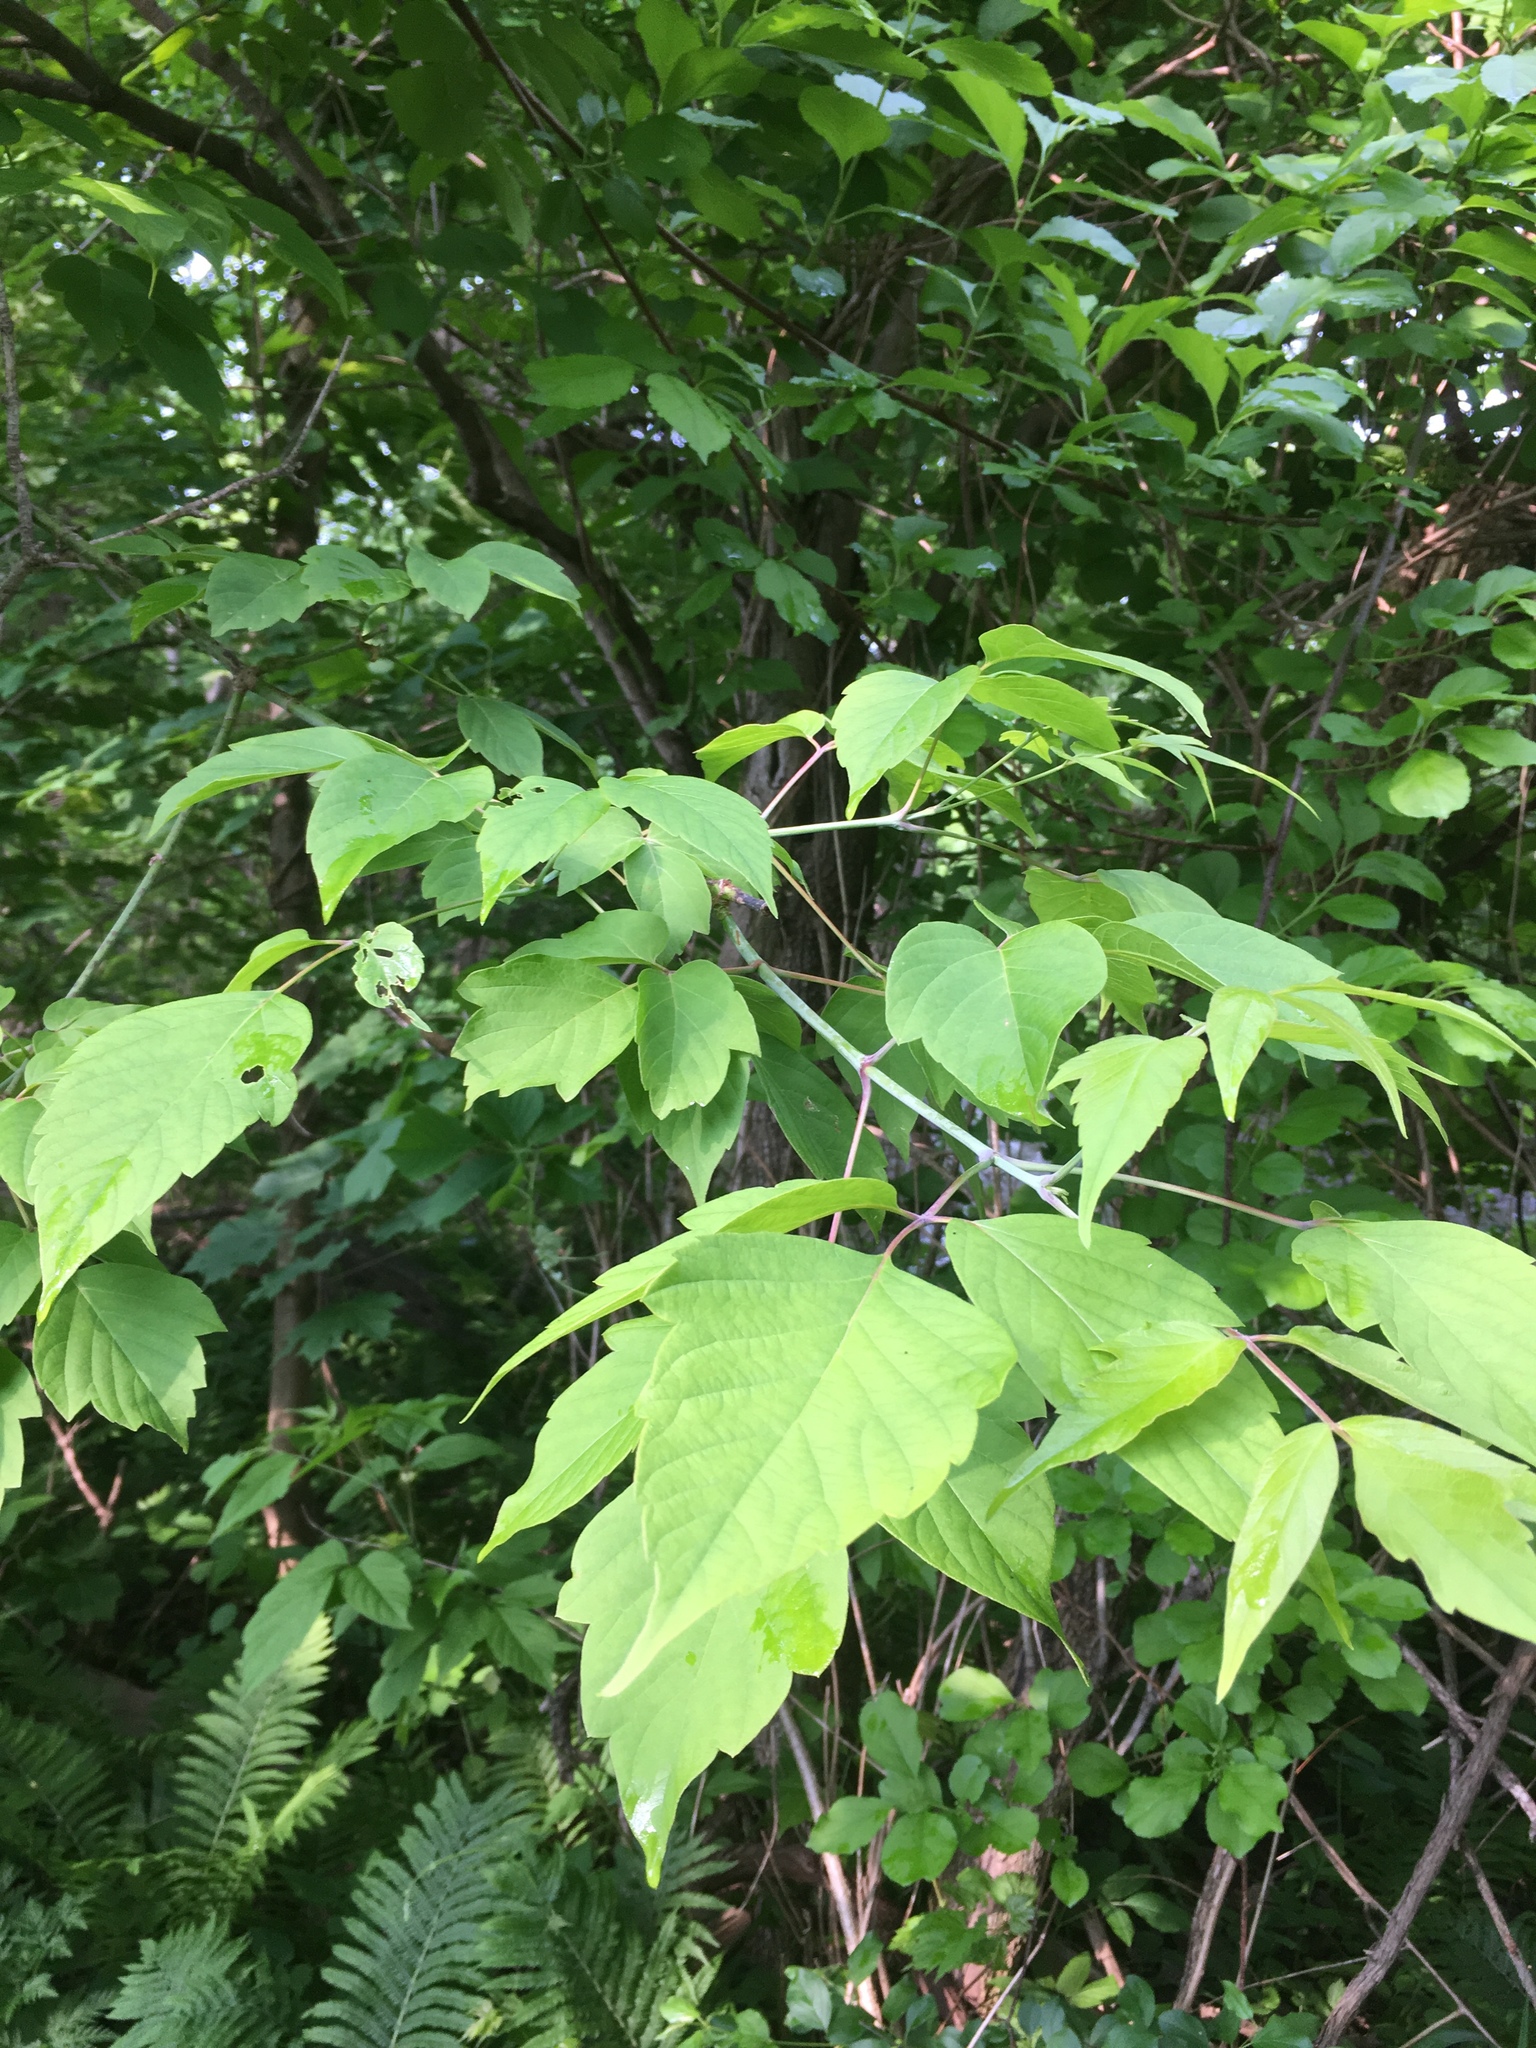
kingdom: Plantae
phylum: Tracheophyta
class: Magnoliopsida
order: Sapindales
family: Sapindaceae
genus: Acer
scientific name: Acer negundo
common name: Ashleaf maple
